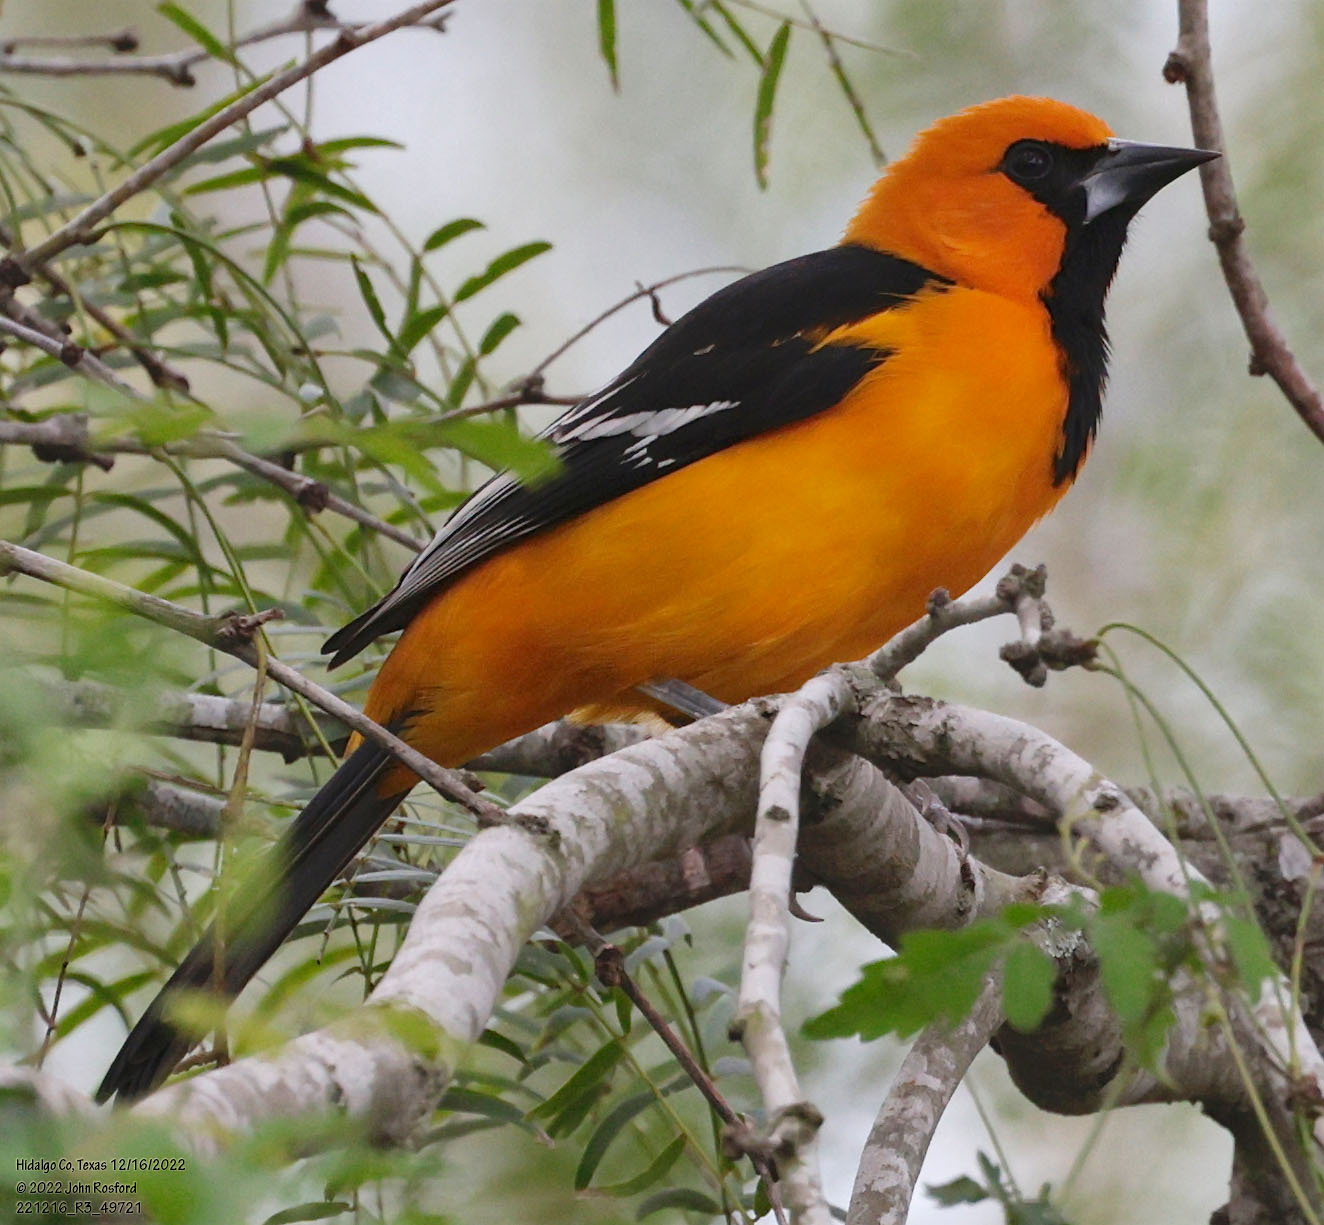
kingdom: Animalia
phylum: Chordata
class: Aves
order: Passeriformes
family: Icteridae
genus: Icterus
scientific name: Icterus gularis
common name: Altamira oriole
